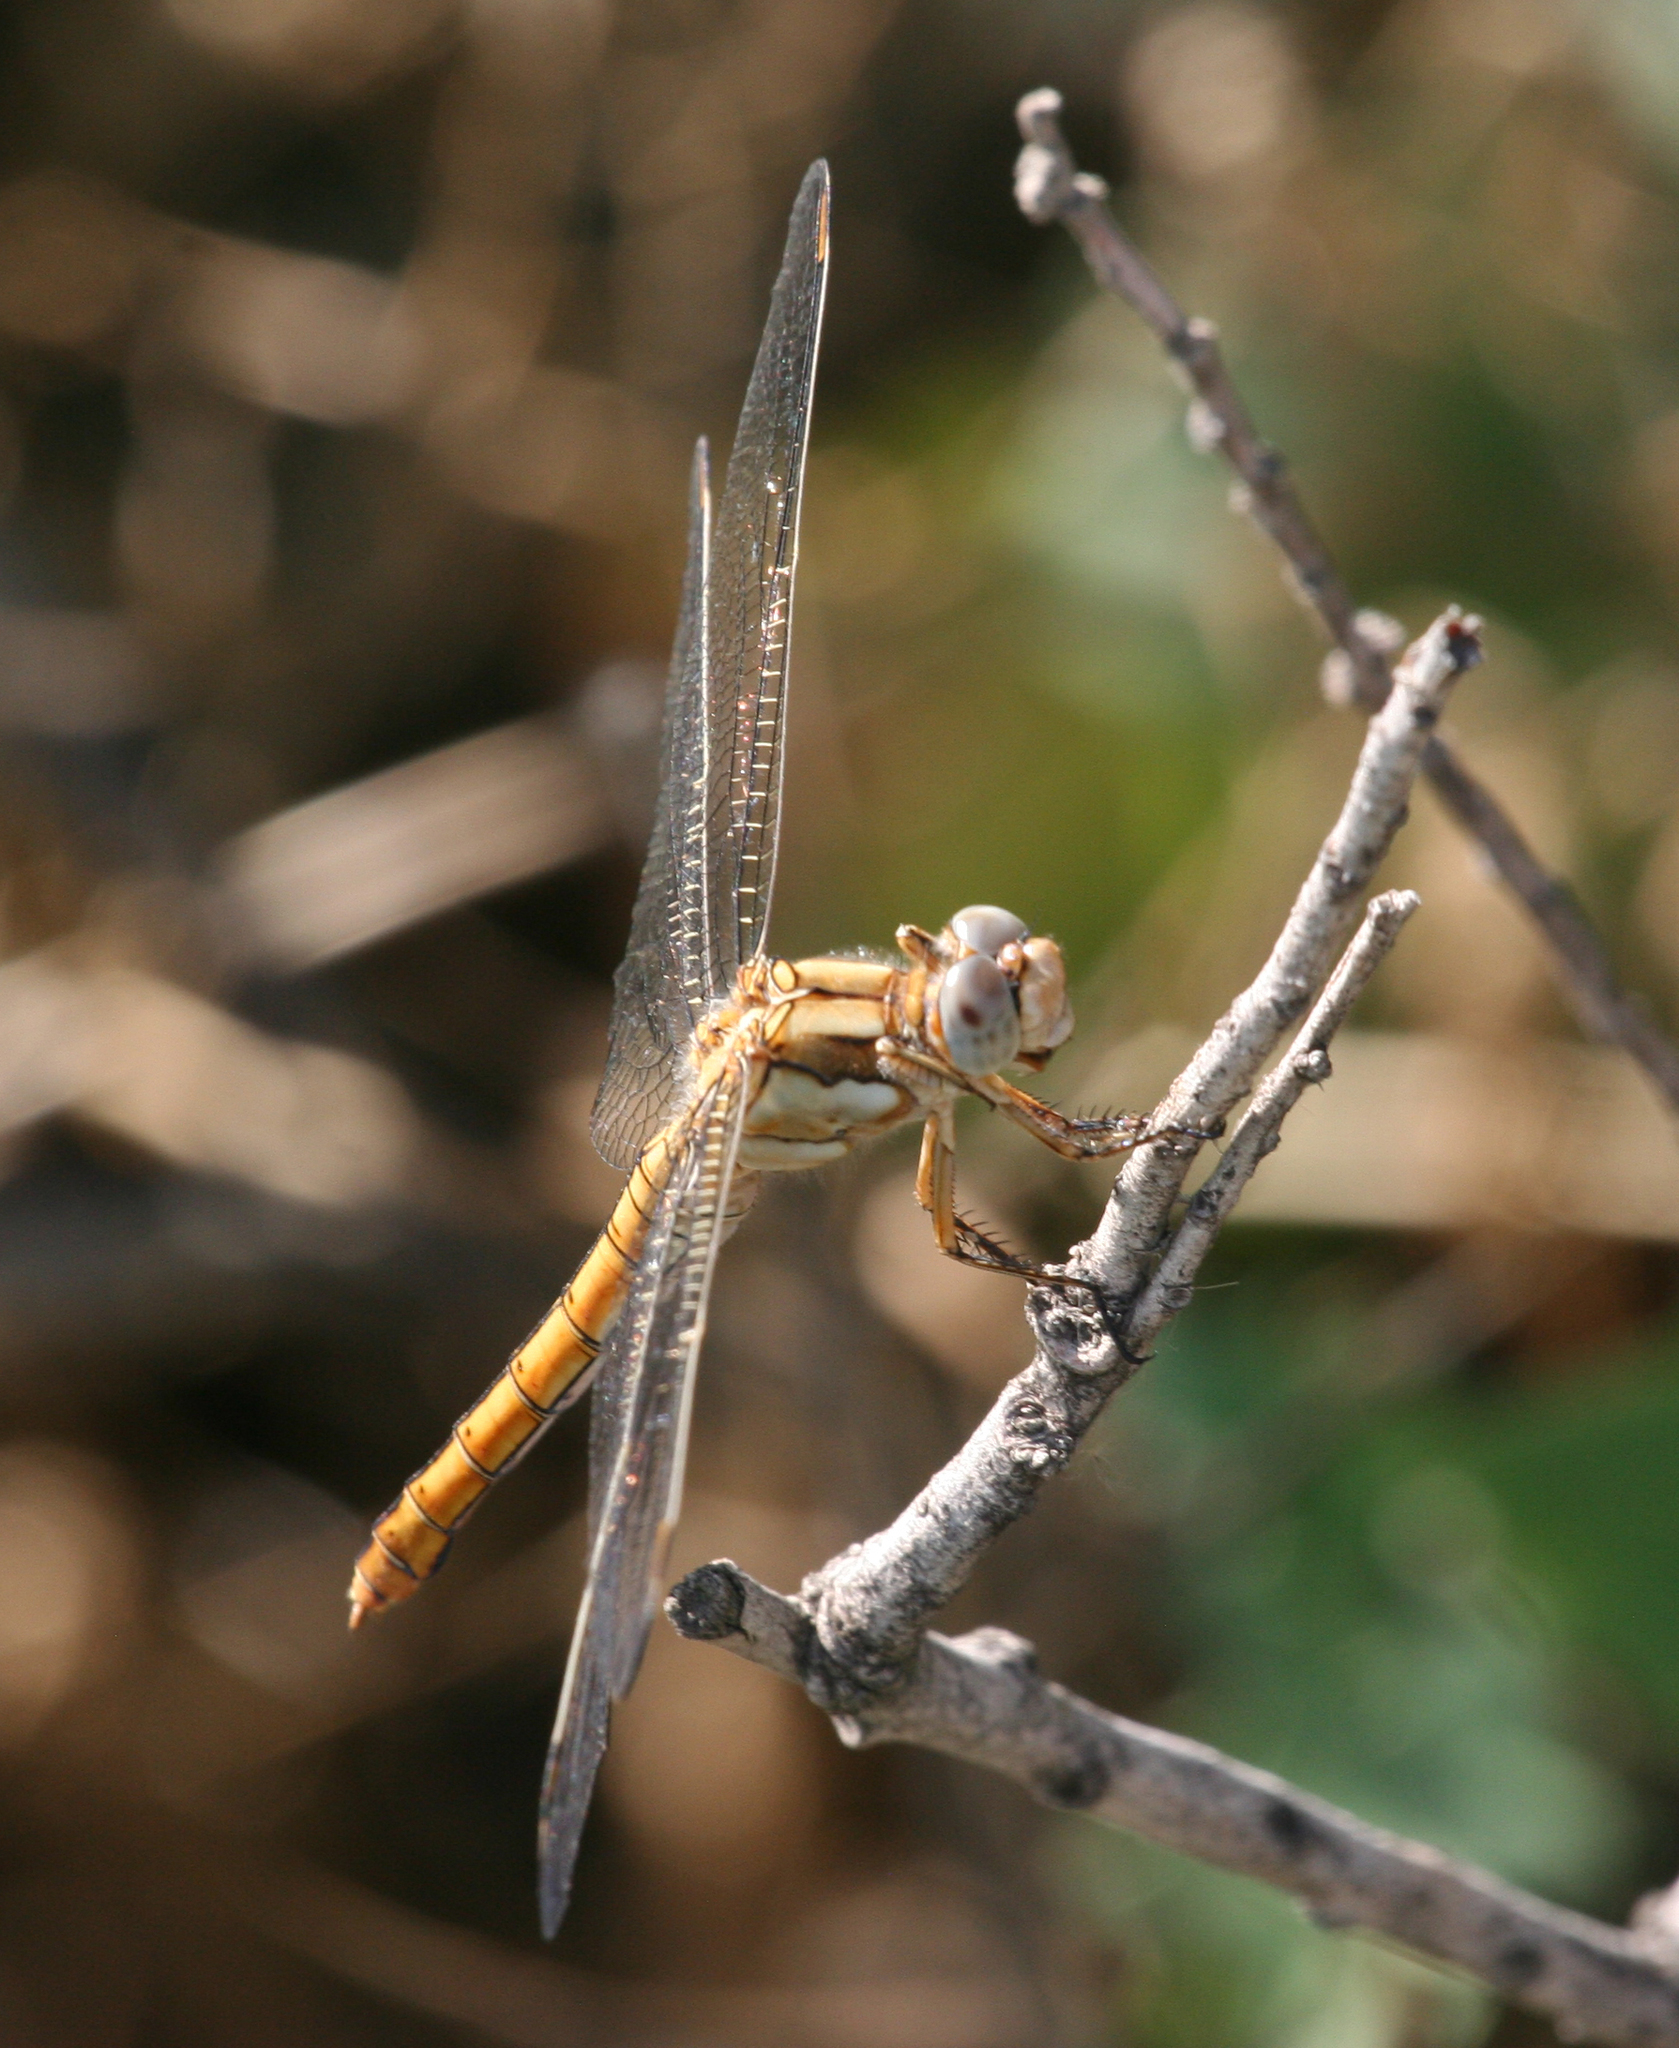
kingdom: Animalia
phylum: Arthropoda
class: Insecta
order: Odonata
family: Libellulidae
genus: Orthetrum
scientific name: Orthetrum brunneum
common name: Southern skimmer
